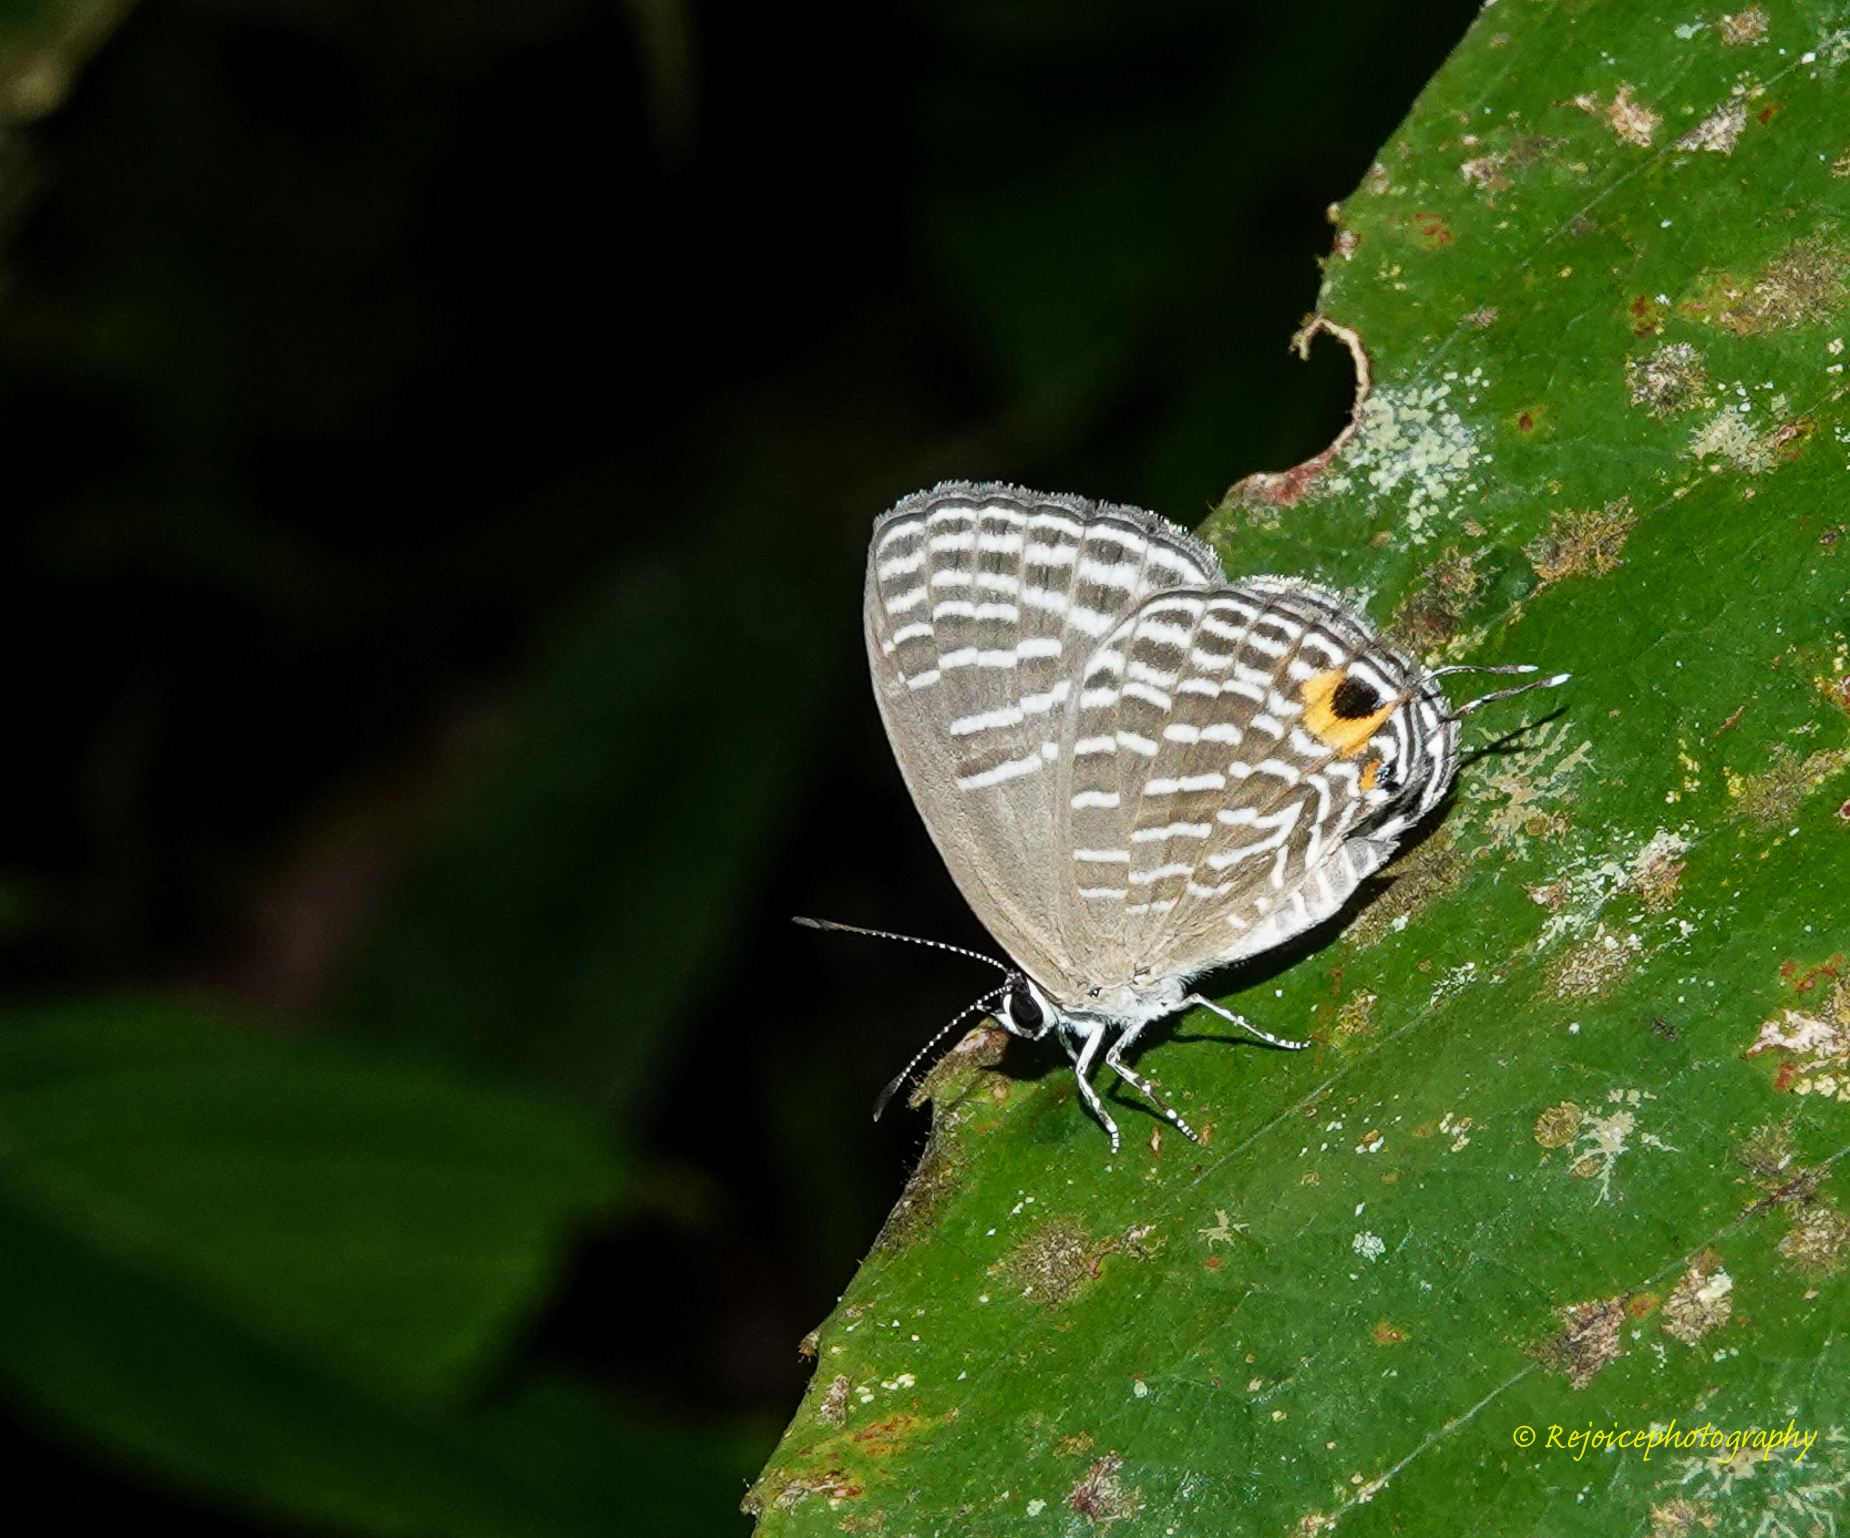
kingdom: Animalia
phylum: Arthropoda
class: Insecta
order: Lepidoptera
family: Lycaenidae
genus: Jamides
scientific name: Jamides celeno
